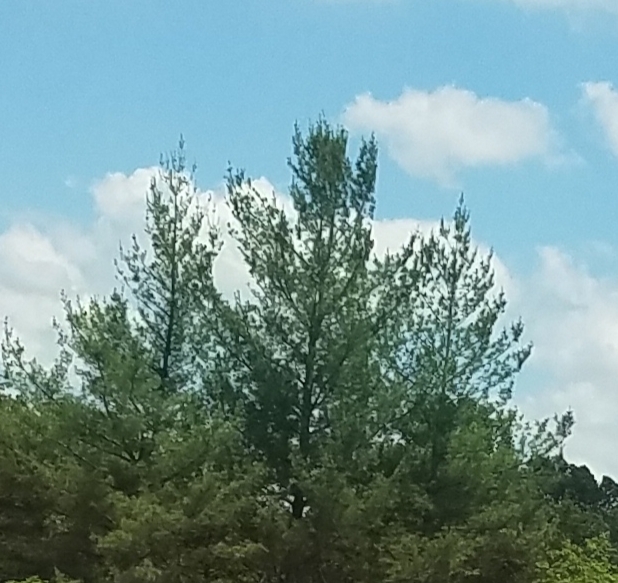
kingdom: Plantae
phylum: Tracheophyta
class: Pinopsida
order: Pinales
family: Pinaceae
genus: Pinus
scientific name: Pinus strobus
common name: Weymouth pine
